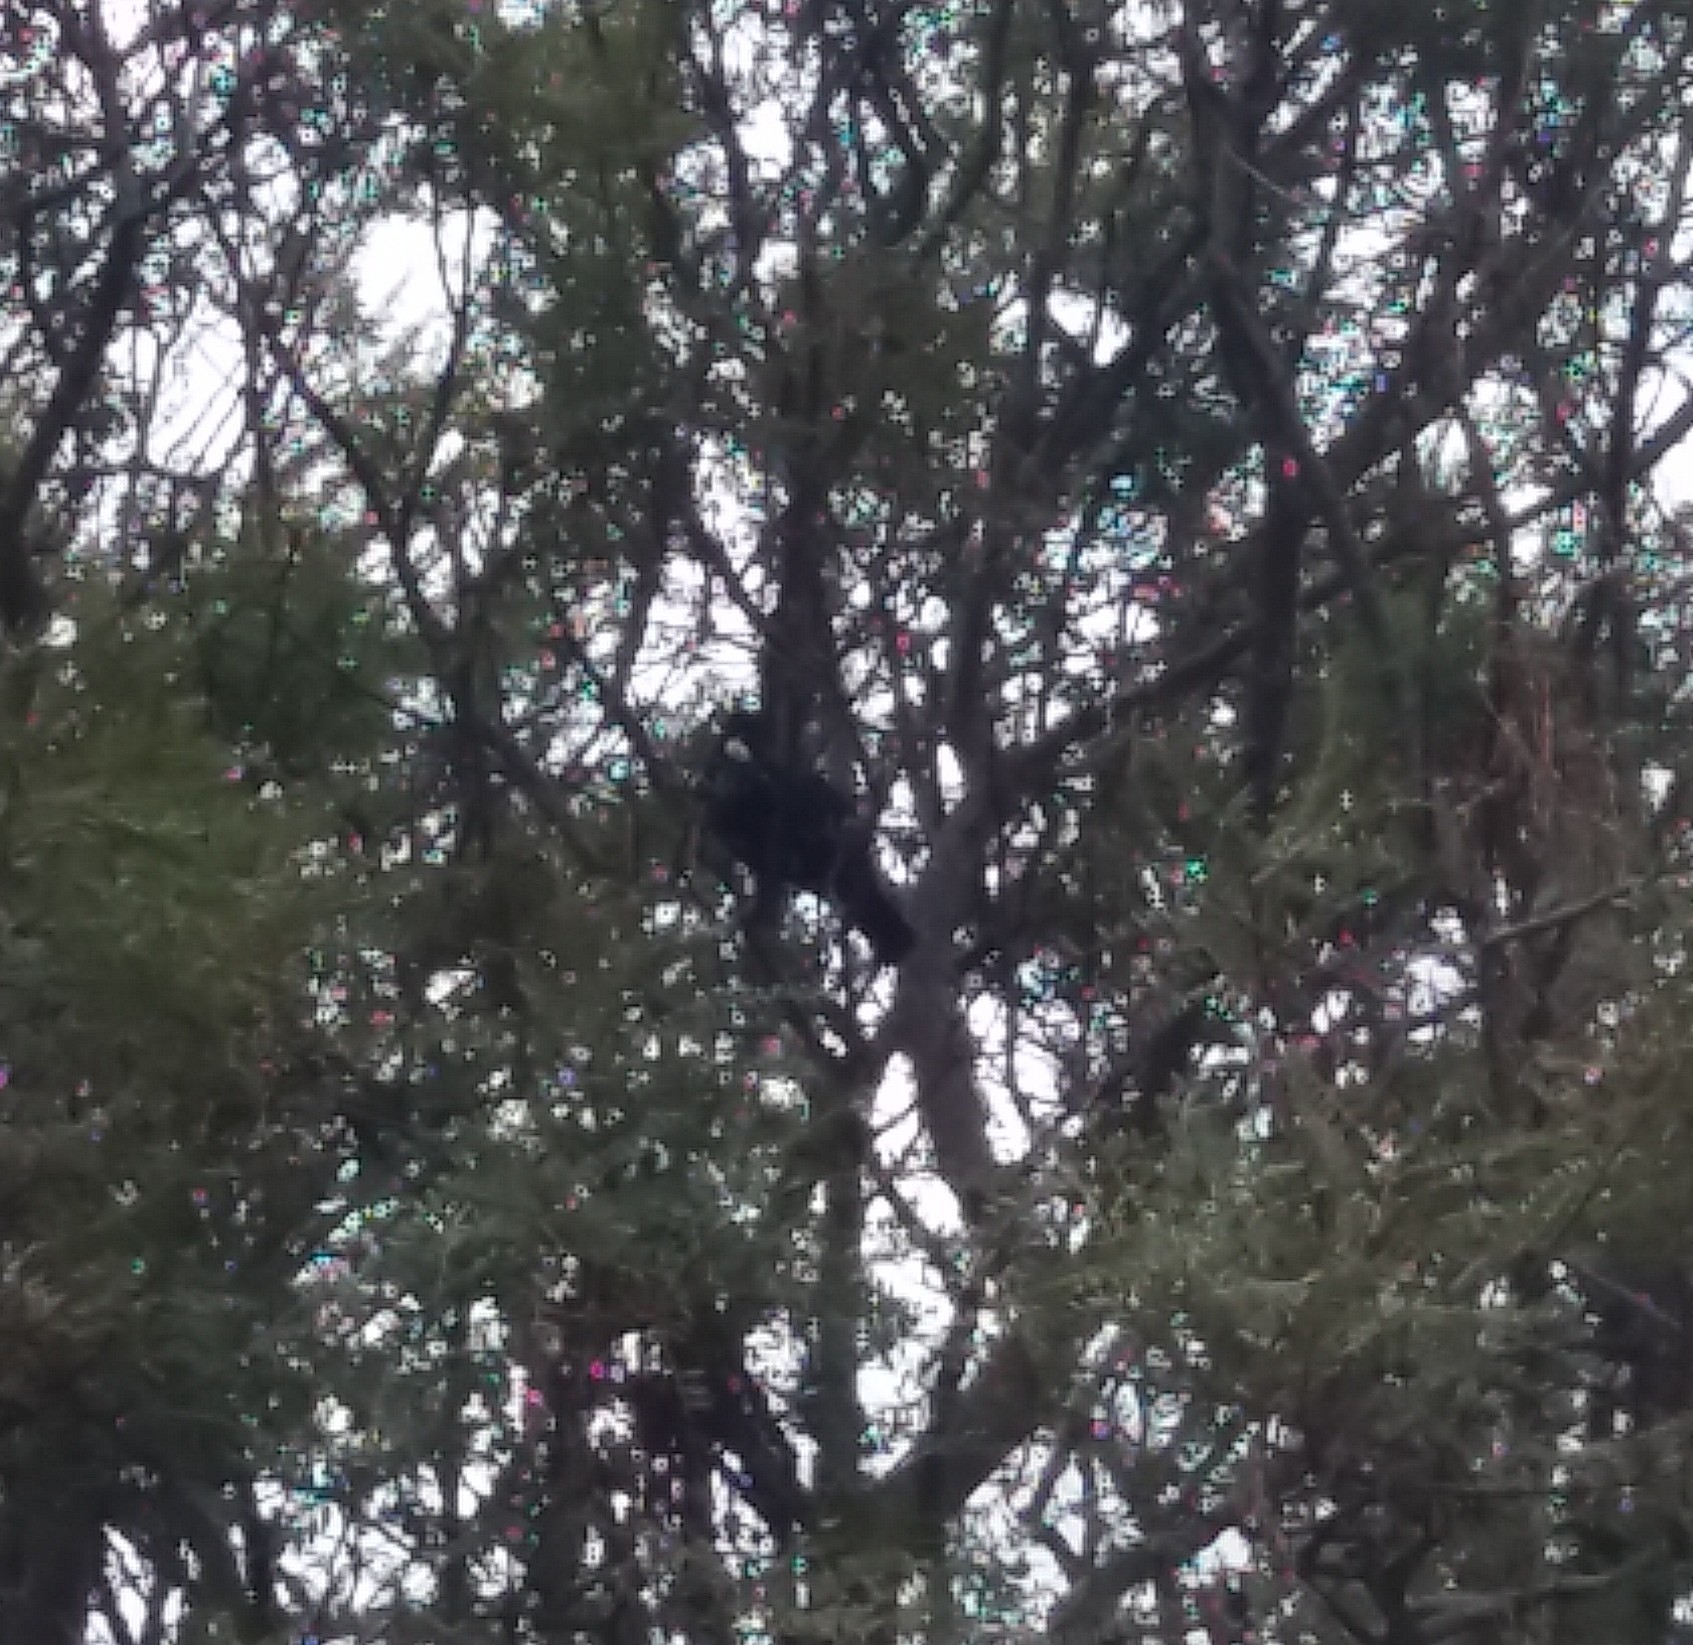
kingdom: Animalia
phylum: Chordata
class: Aves
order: Passeriformes
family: Meliphagidae
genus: Prosthemadera
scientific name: Prosthemadera novaeseelandiae
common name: Tui
